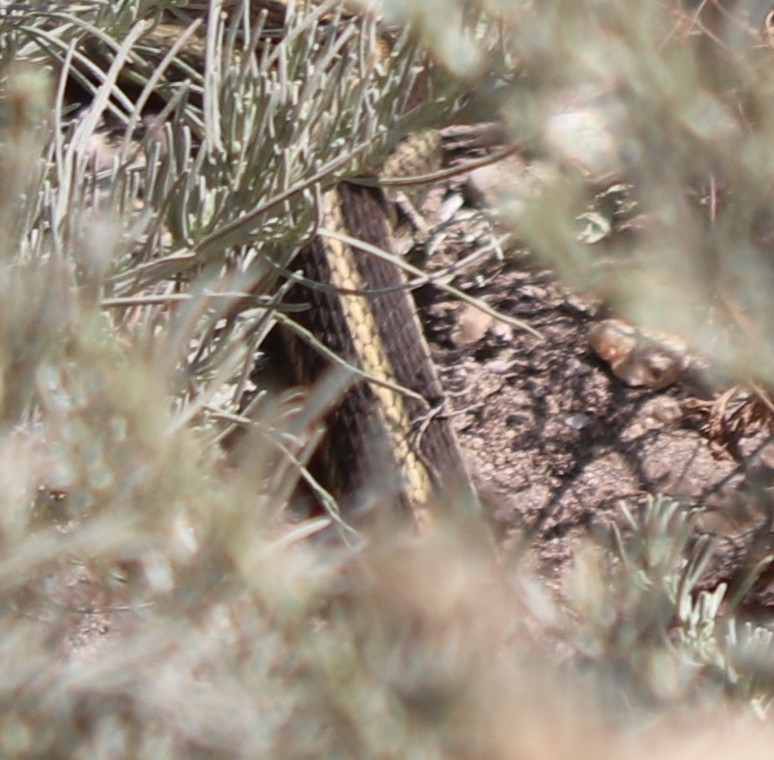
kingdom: Animalia
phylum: Chordata
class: Squamata
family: Colubridae
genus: Thamnophis
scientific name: Thamnophis elegans
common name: Western terrestrial garter snake
